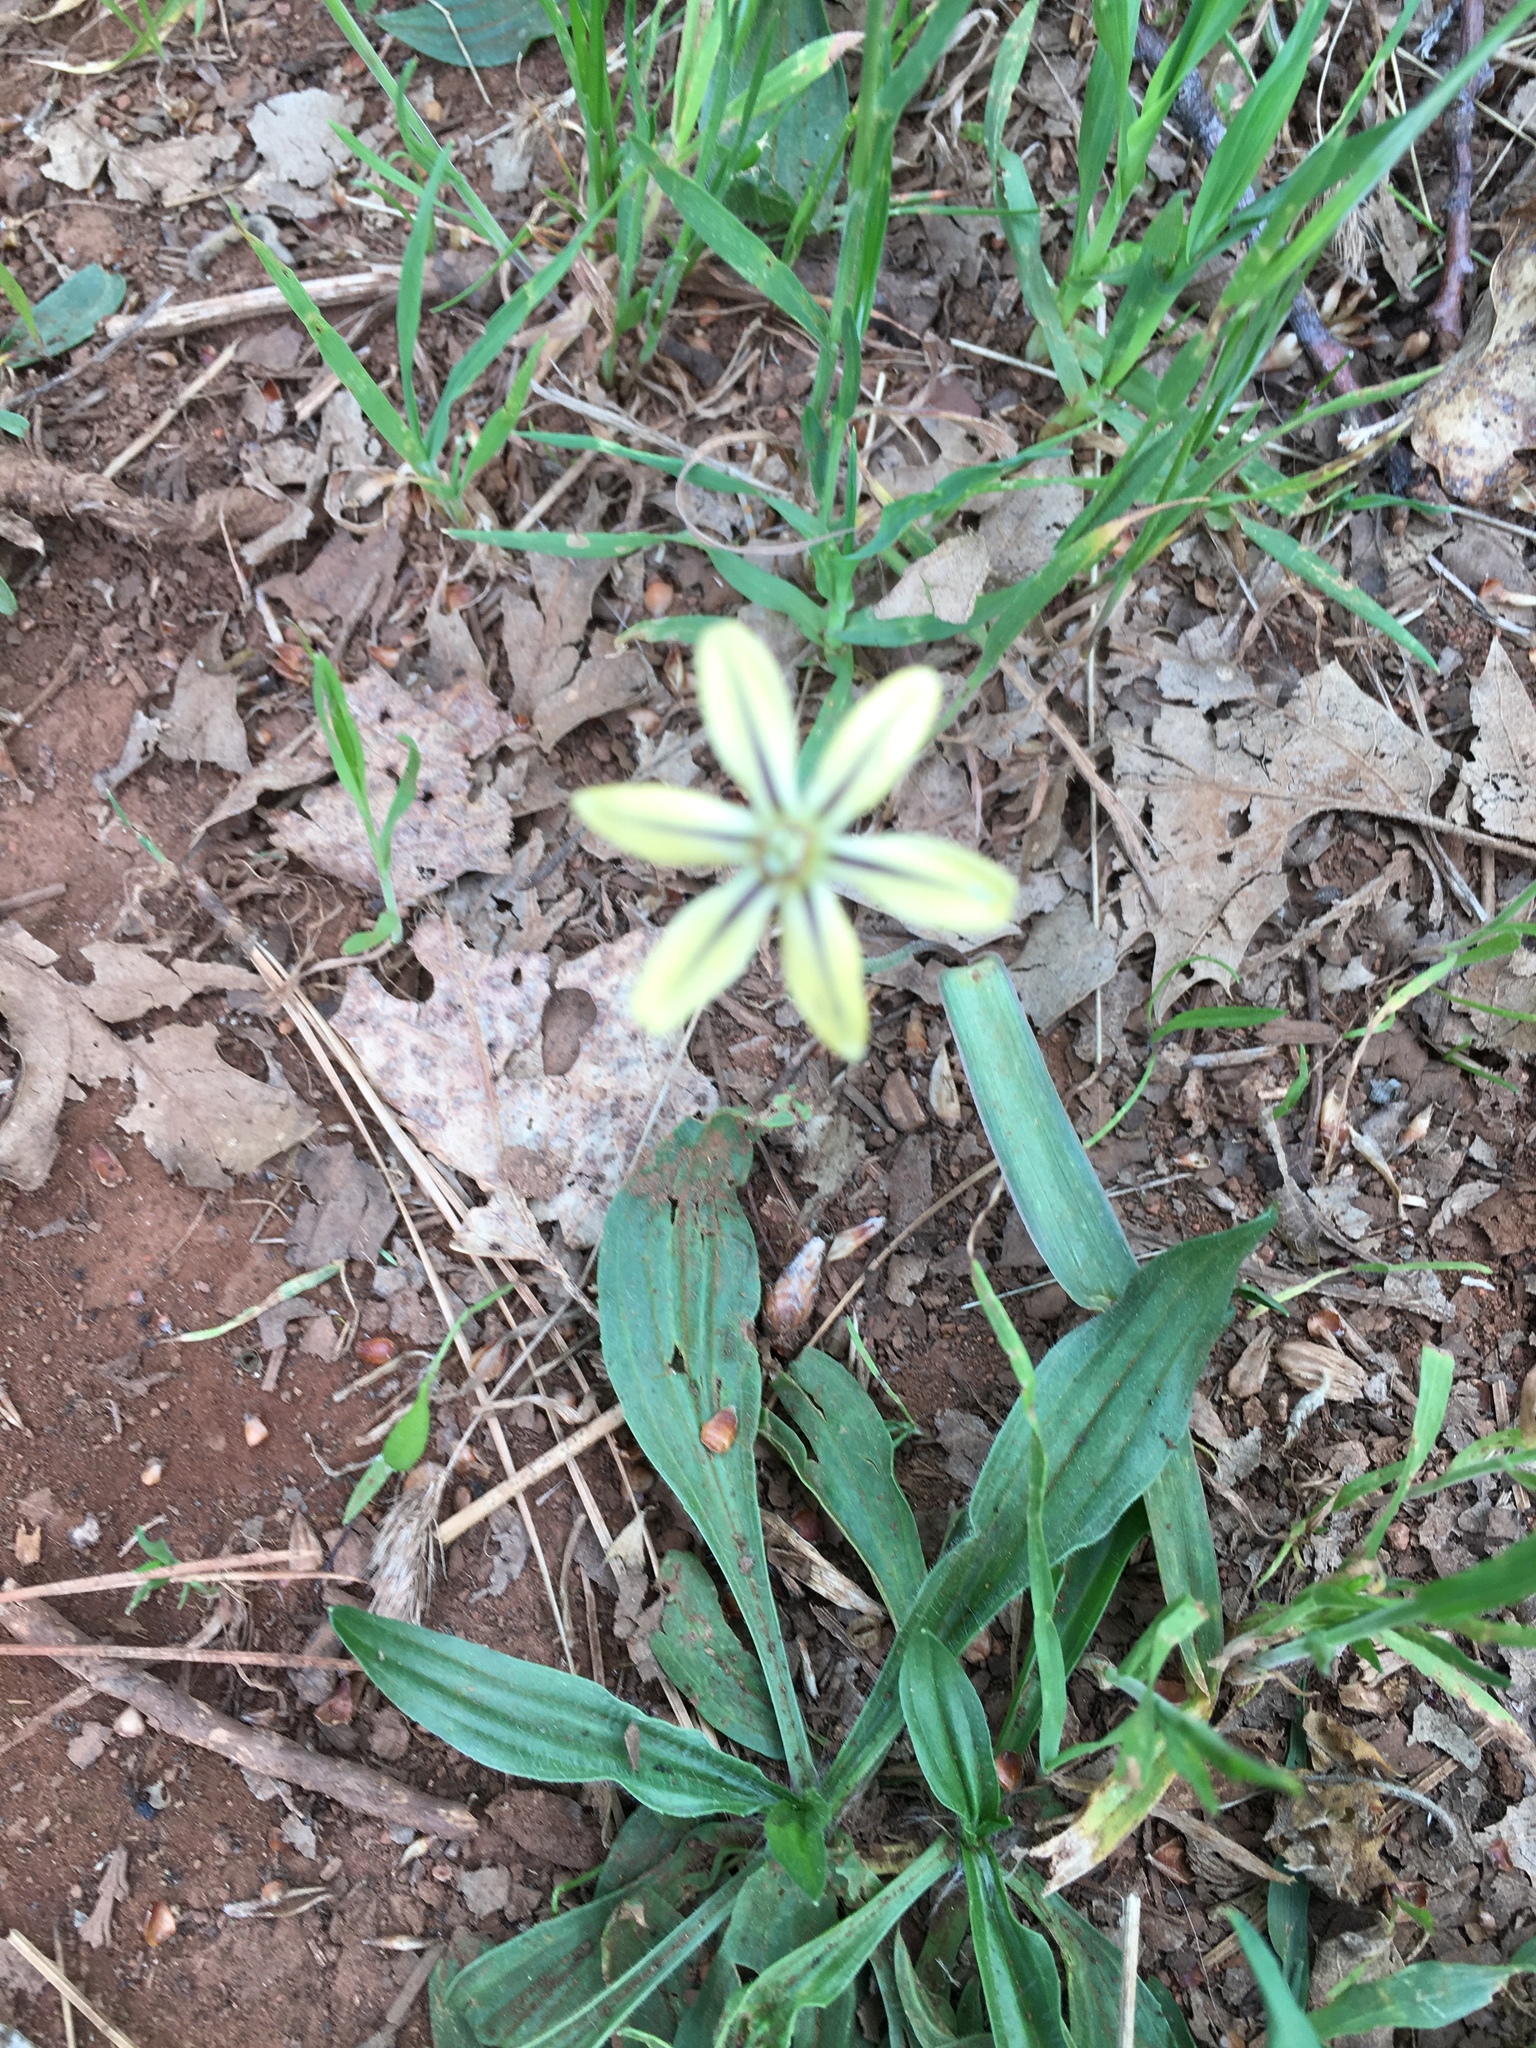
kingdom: Plantae
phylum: Tracheophyta
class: Liliopsida
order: Asparagales
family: Asparagaceae
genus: Triteleia
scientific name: Triteleia ixioides
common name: Yellow-brodiaea
